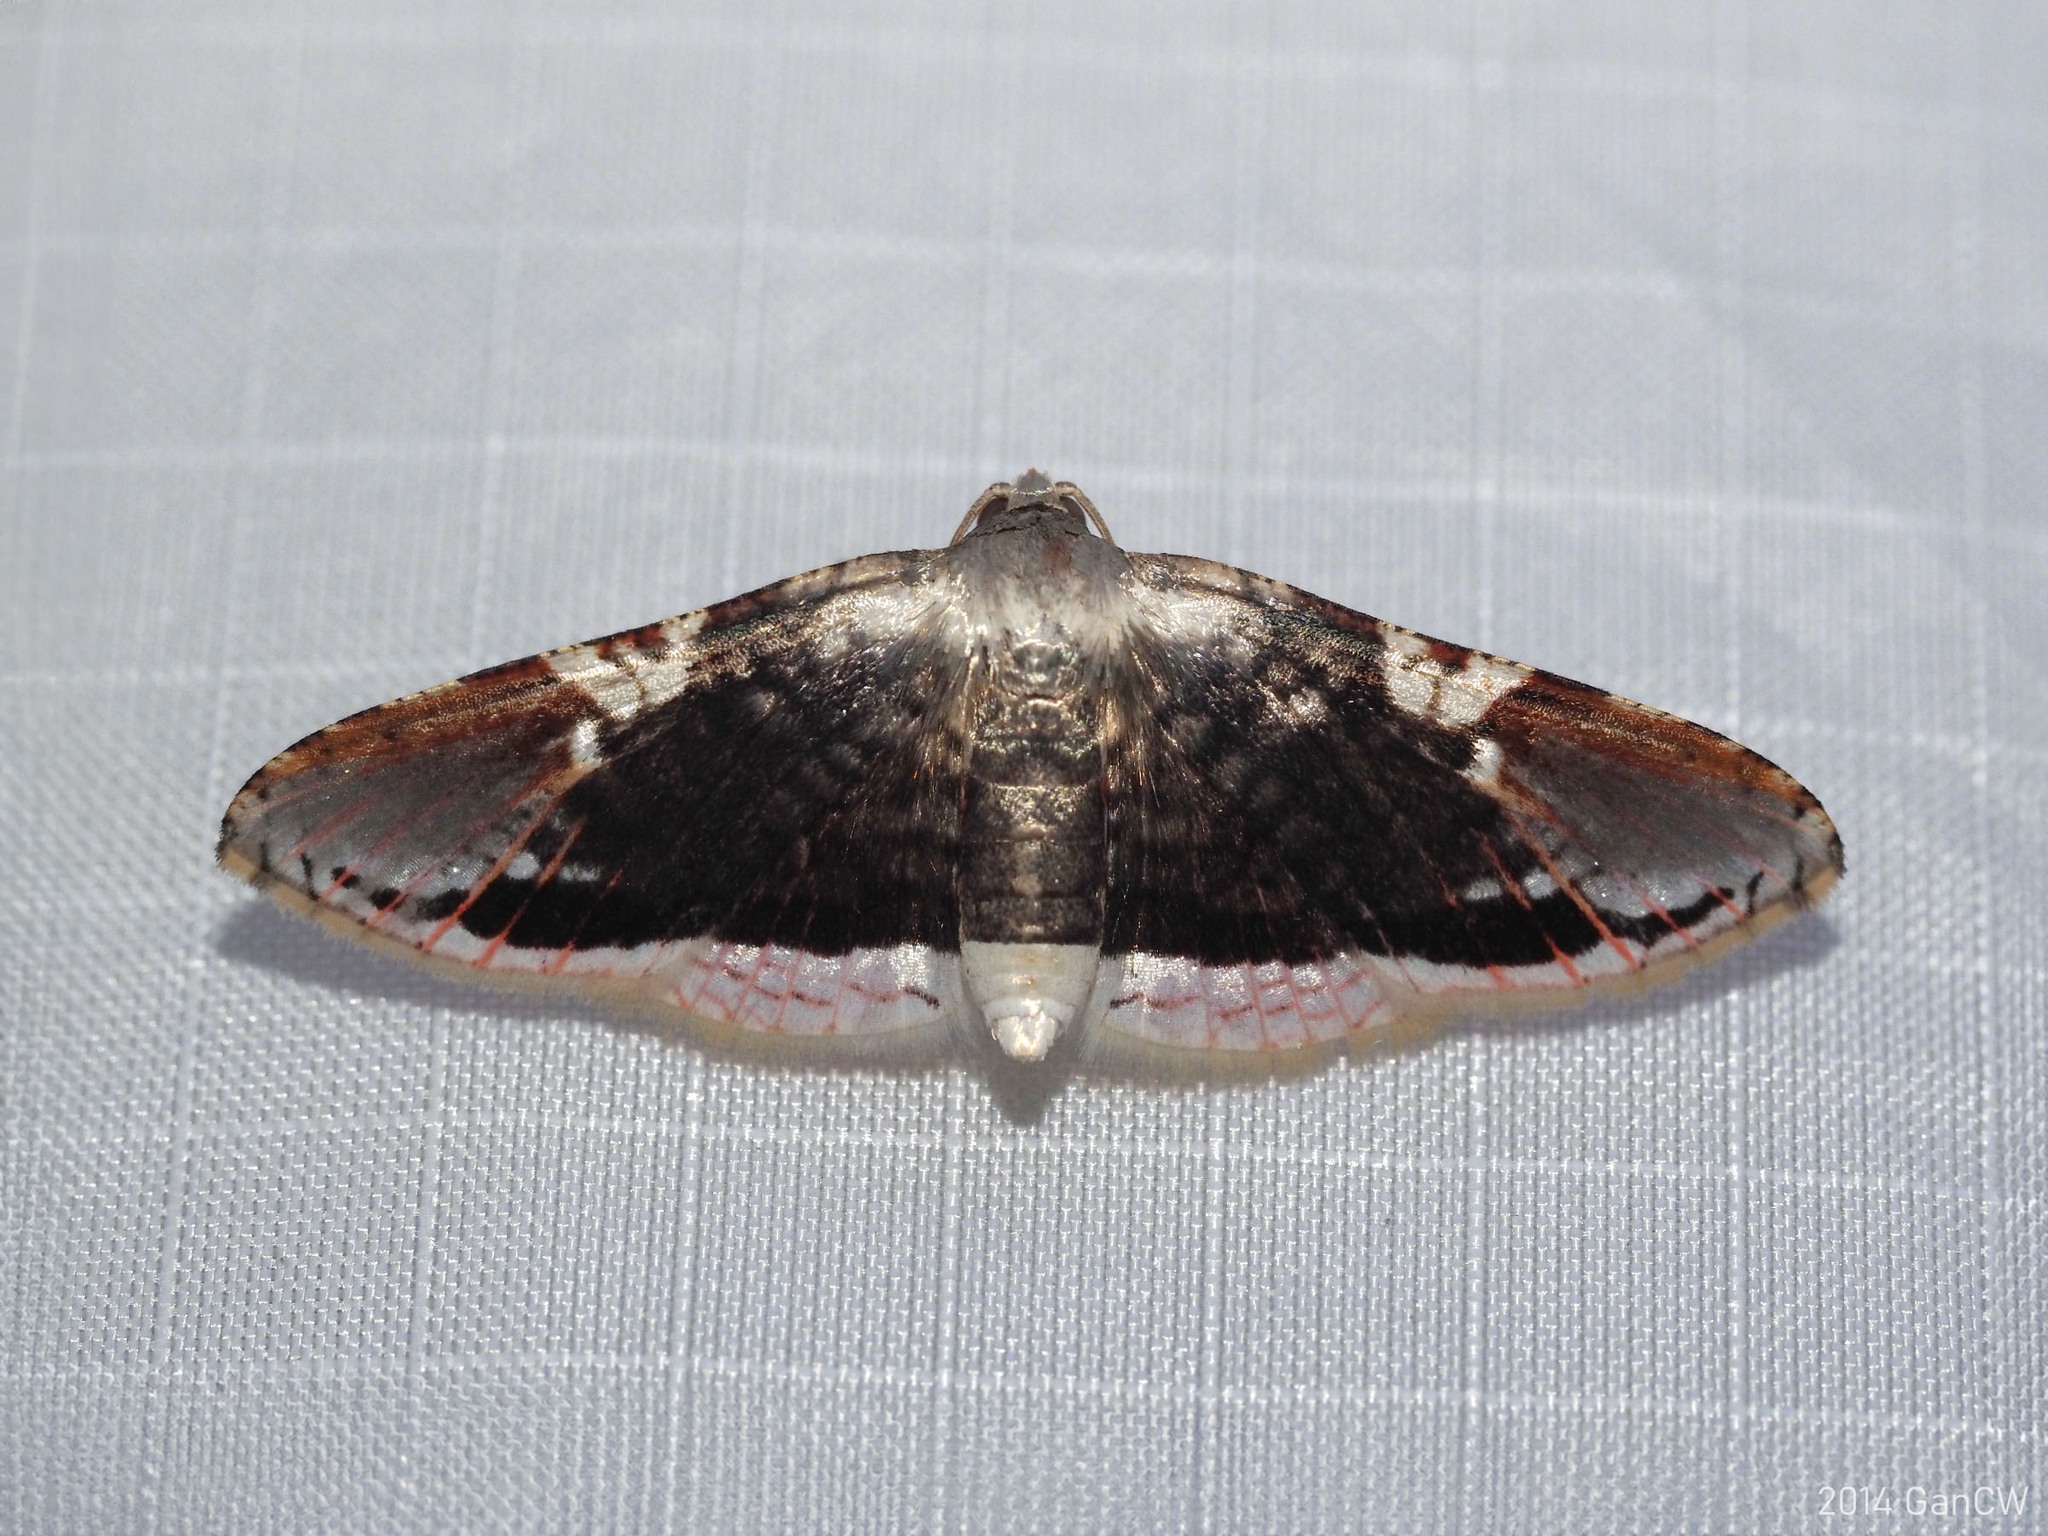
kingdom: Animalia
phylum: Arthropoda
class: Insecta
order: Lepidoptera
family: Thyrididae
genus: Rhodoneura
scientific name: Rhodoneura acaciusalis
